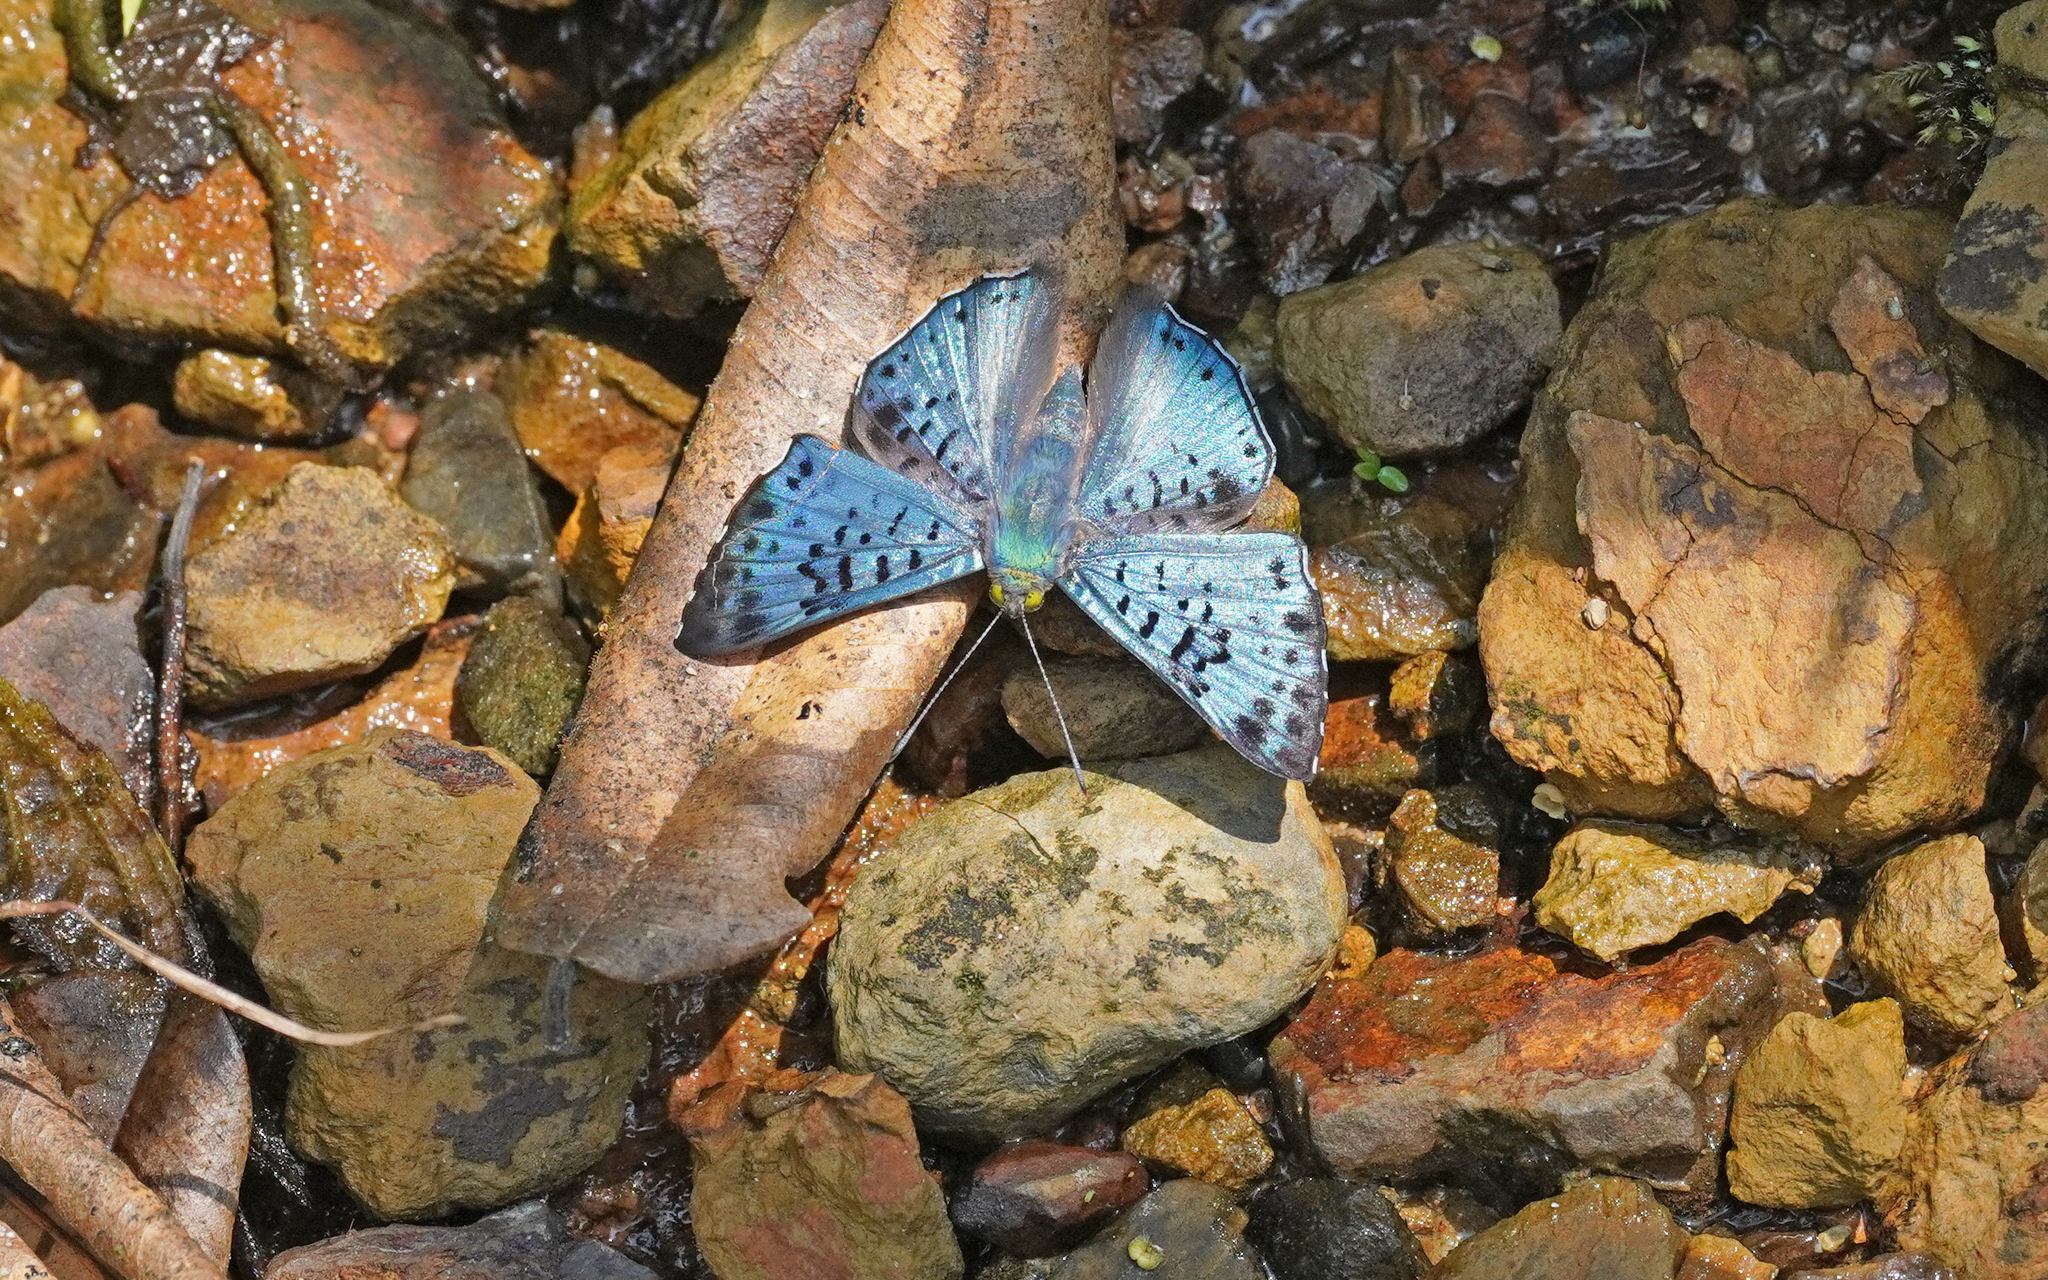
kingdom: Animalia
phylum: Arthropoda
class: Insecta
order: Lepidoptera
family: Riodinidae
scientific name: Riodinidae
